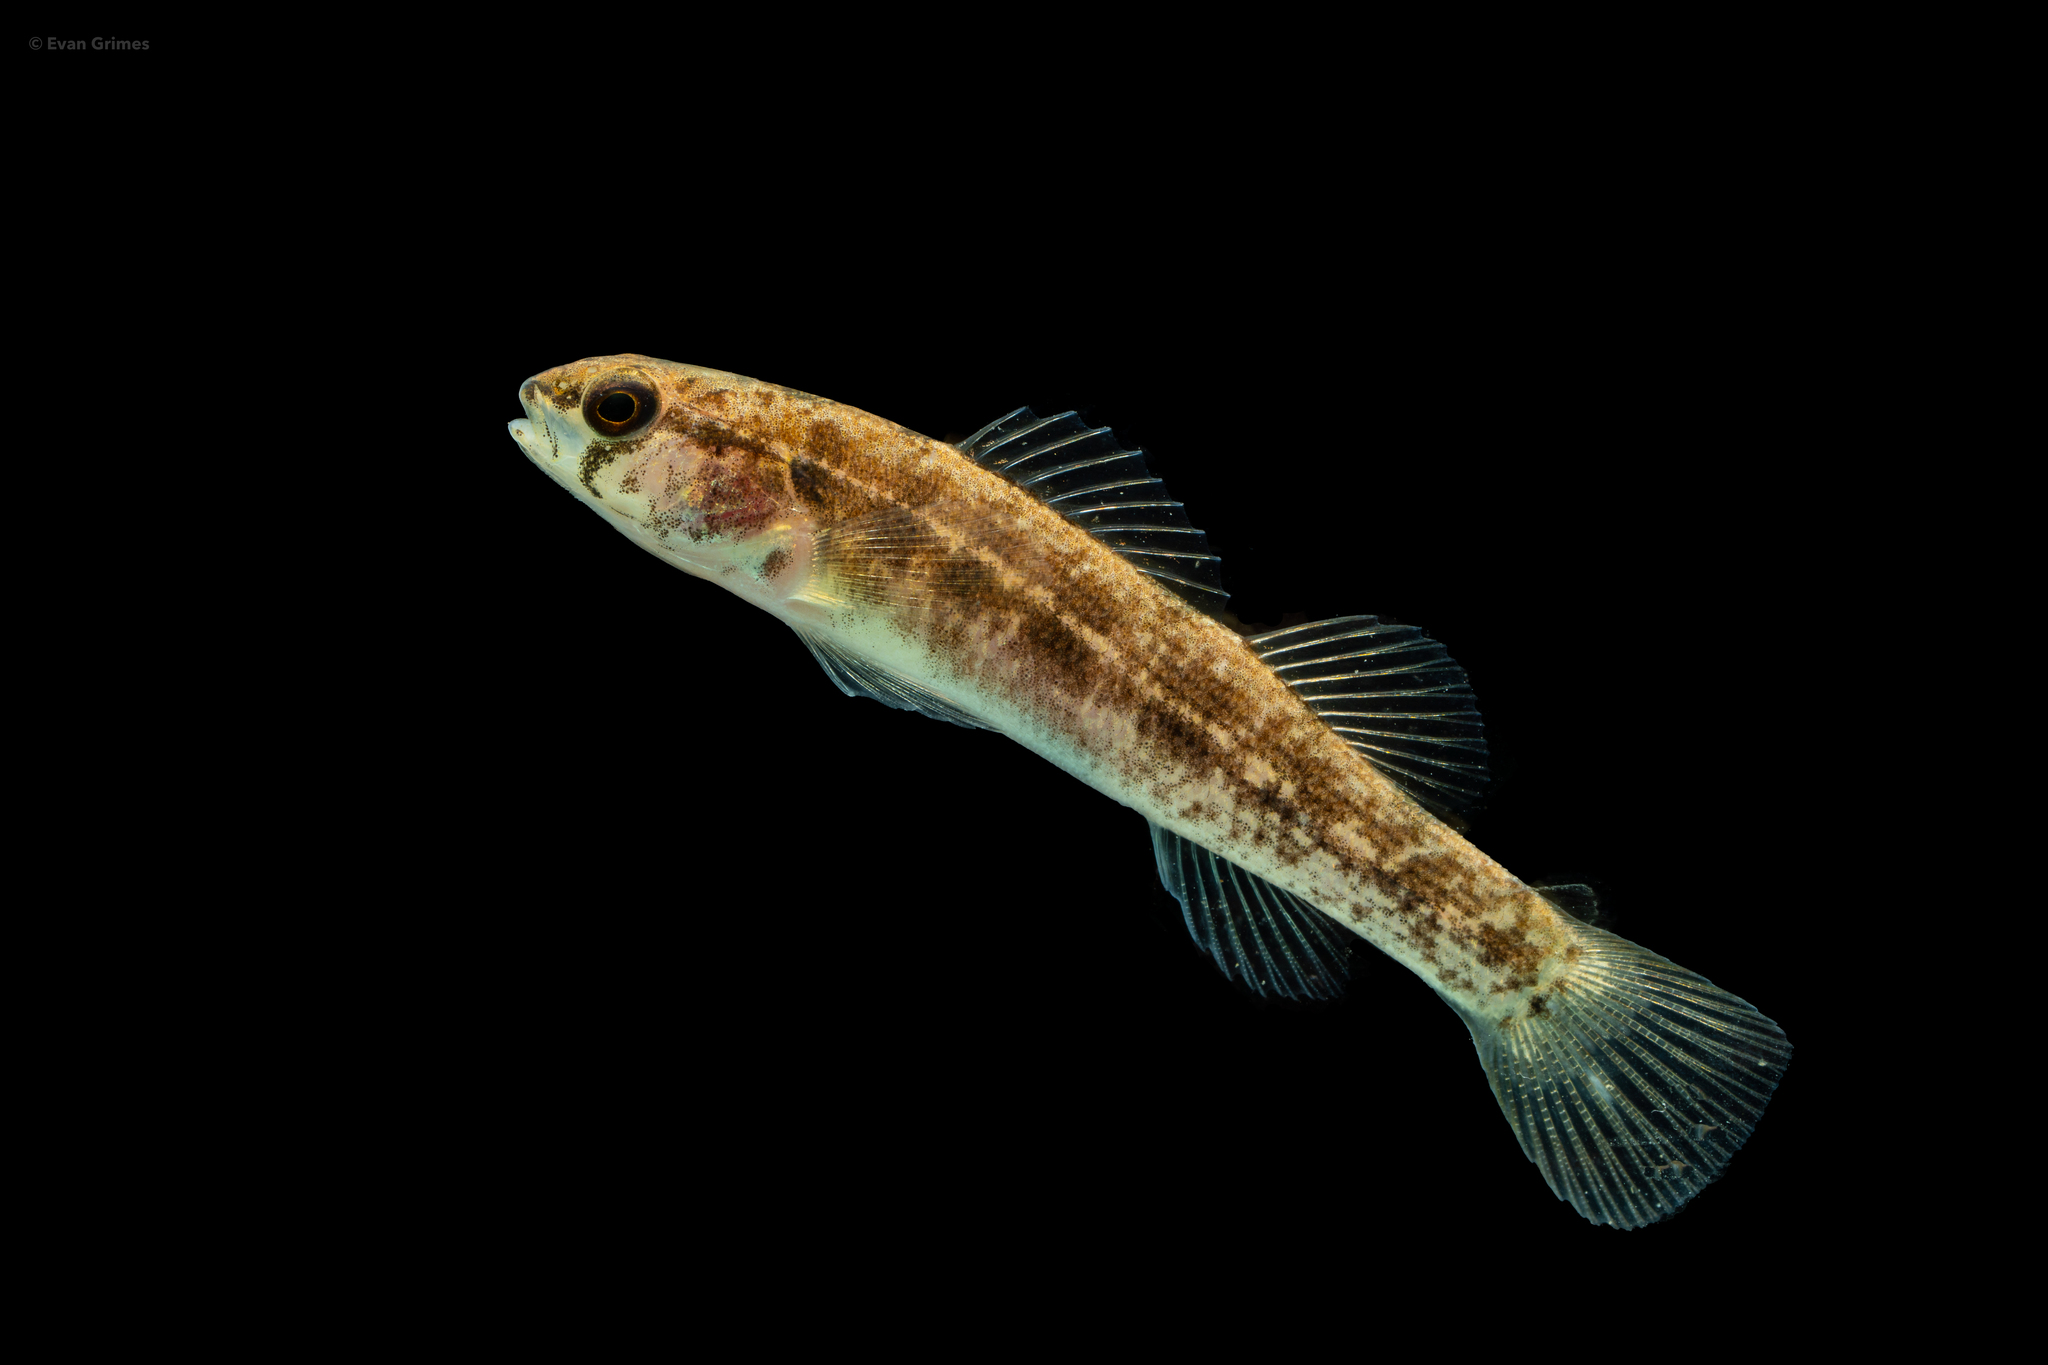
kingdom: Animalia
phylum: Chordata
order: Perciformes
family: Percidae
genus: Etheostoma
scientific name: Etheostoma parvipinne
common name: Goldstripe darter
